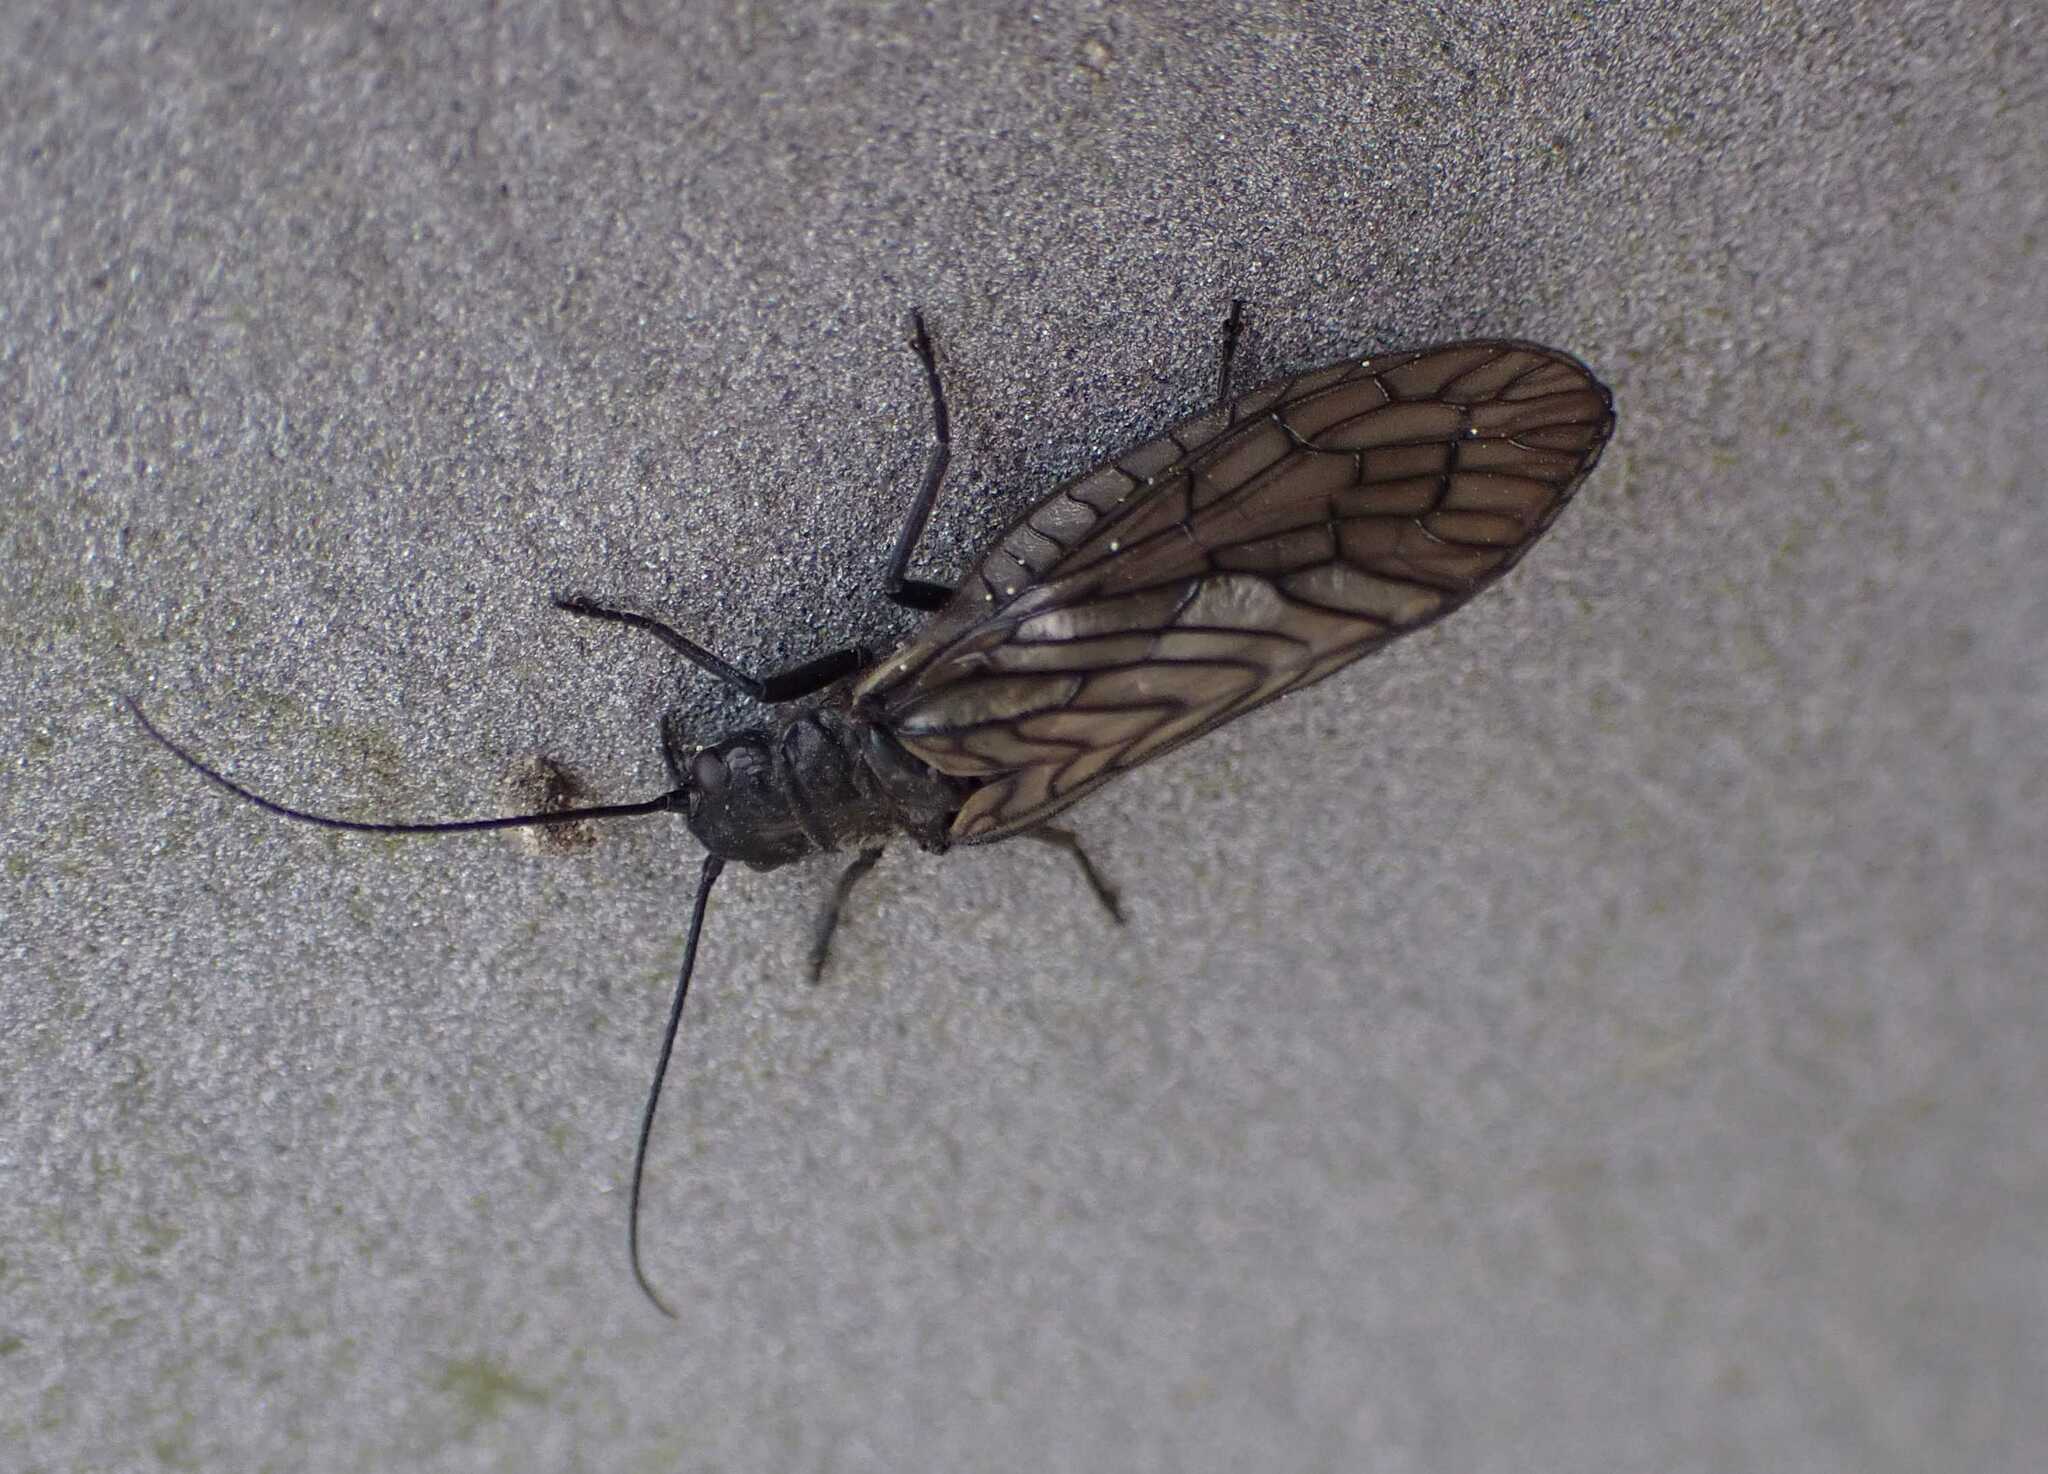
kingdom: Animalia
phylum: Arthropoda
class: Insecta
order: Megaloptera
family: Sialidae
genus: Sialis
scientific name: Sialis
